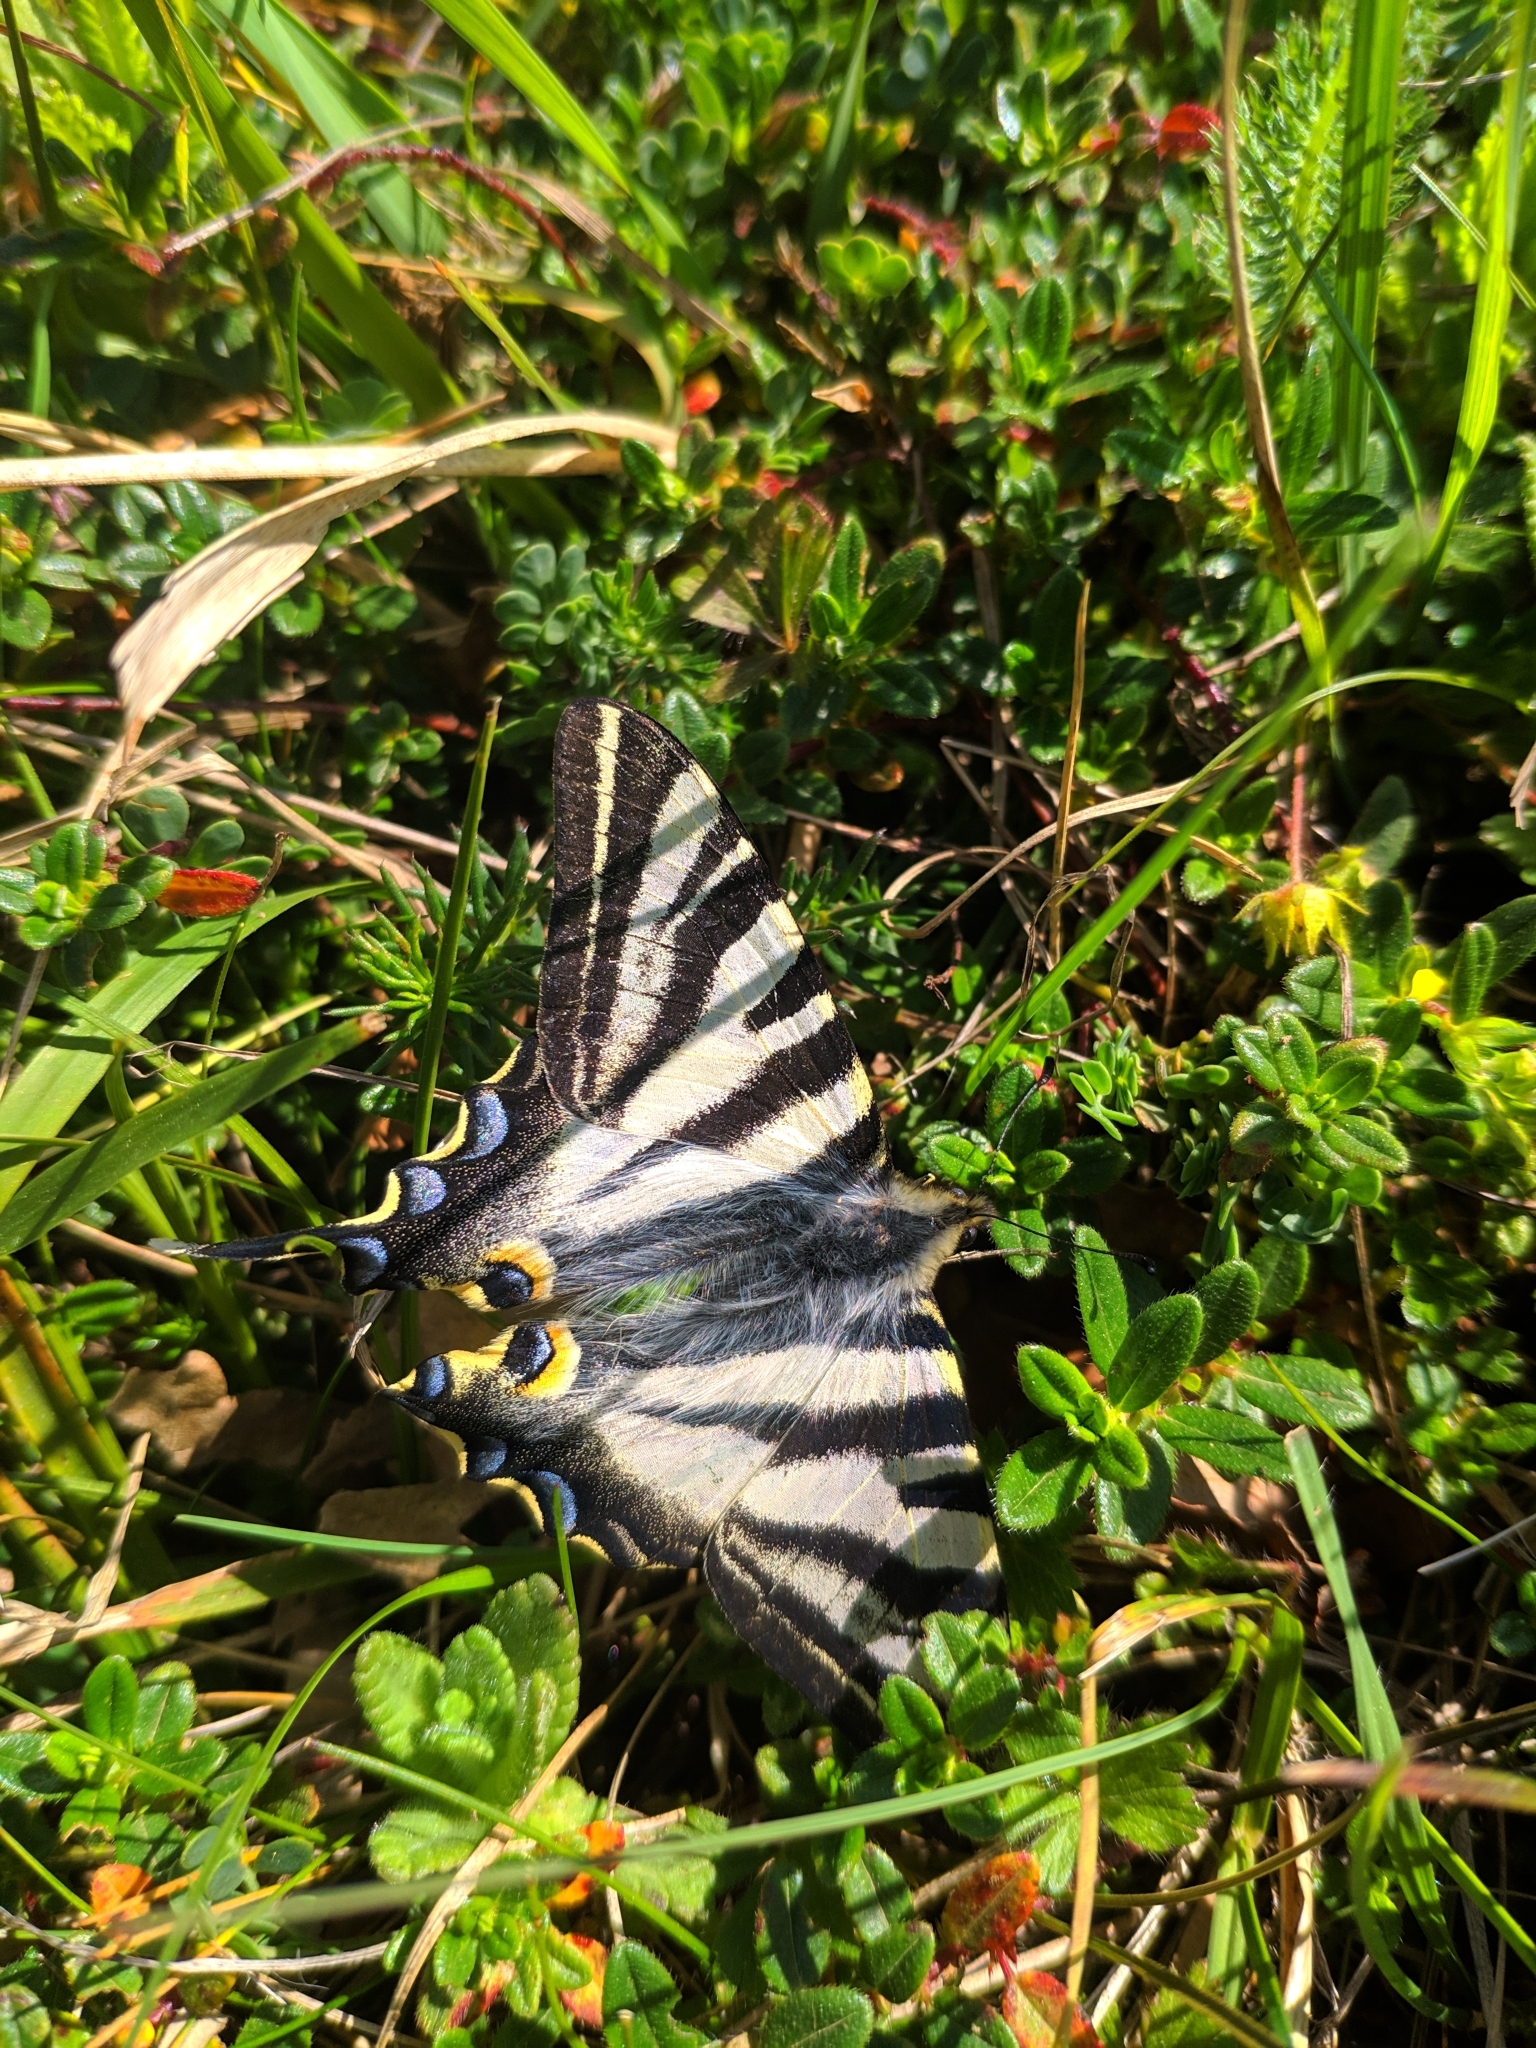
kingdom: Animalia
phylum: Arthropoda
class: Insecta
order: Lepidoptera
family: Papilionidae
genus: Iphiclides
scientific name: Iphiclides feisthamelii
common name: Iberian scarce swallowtail
